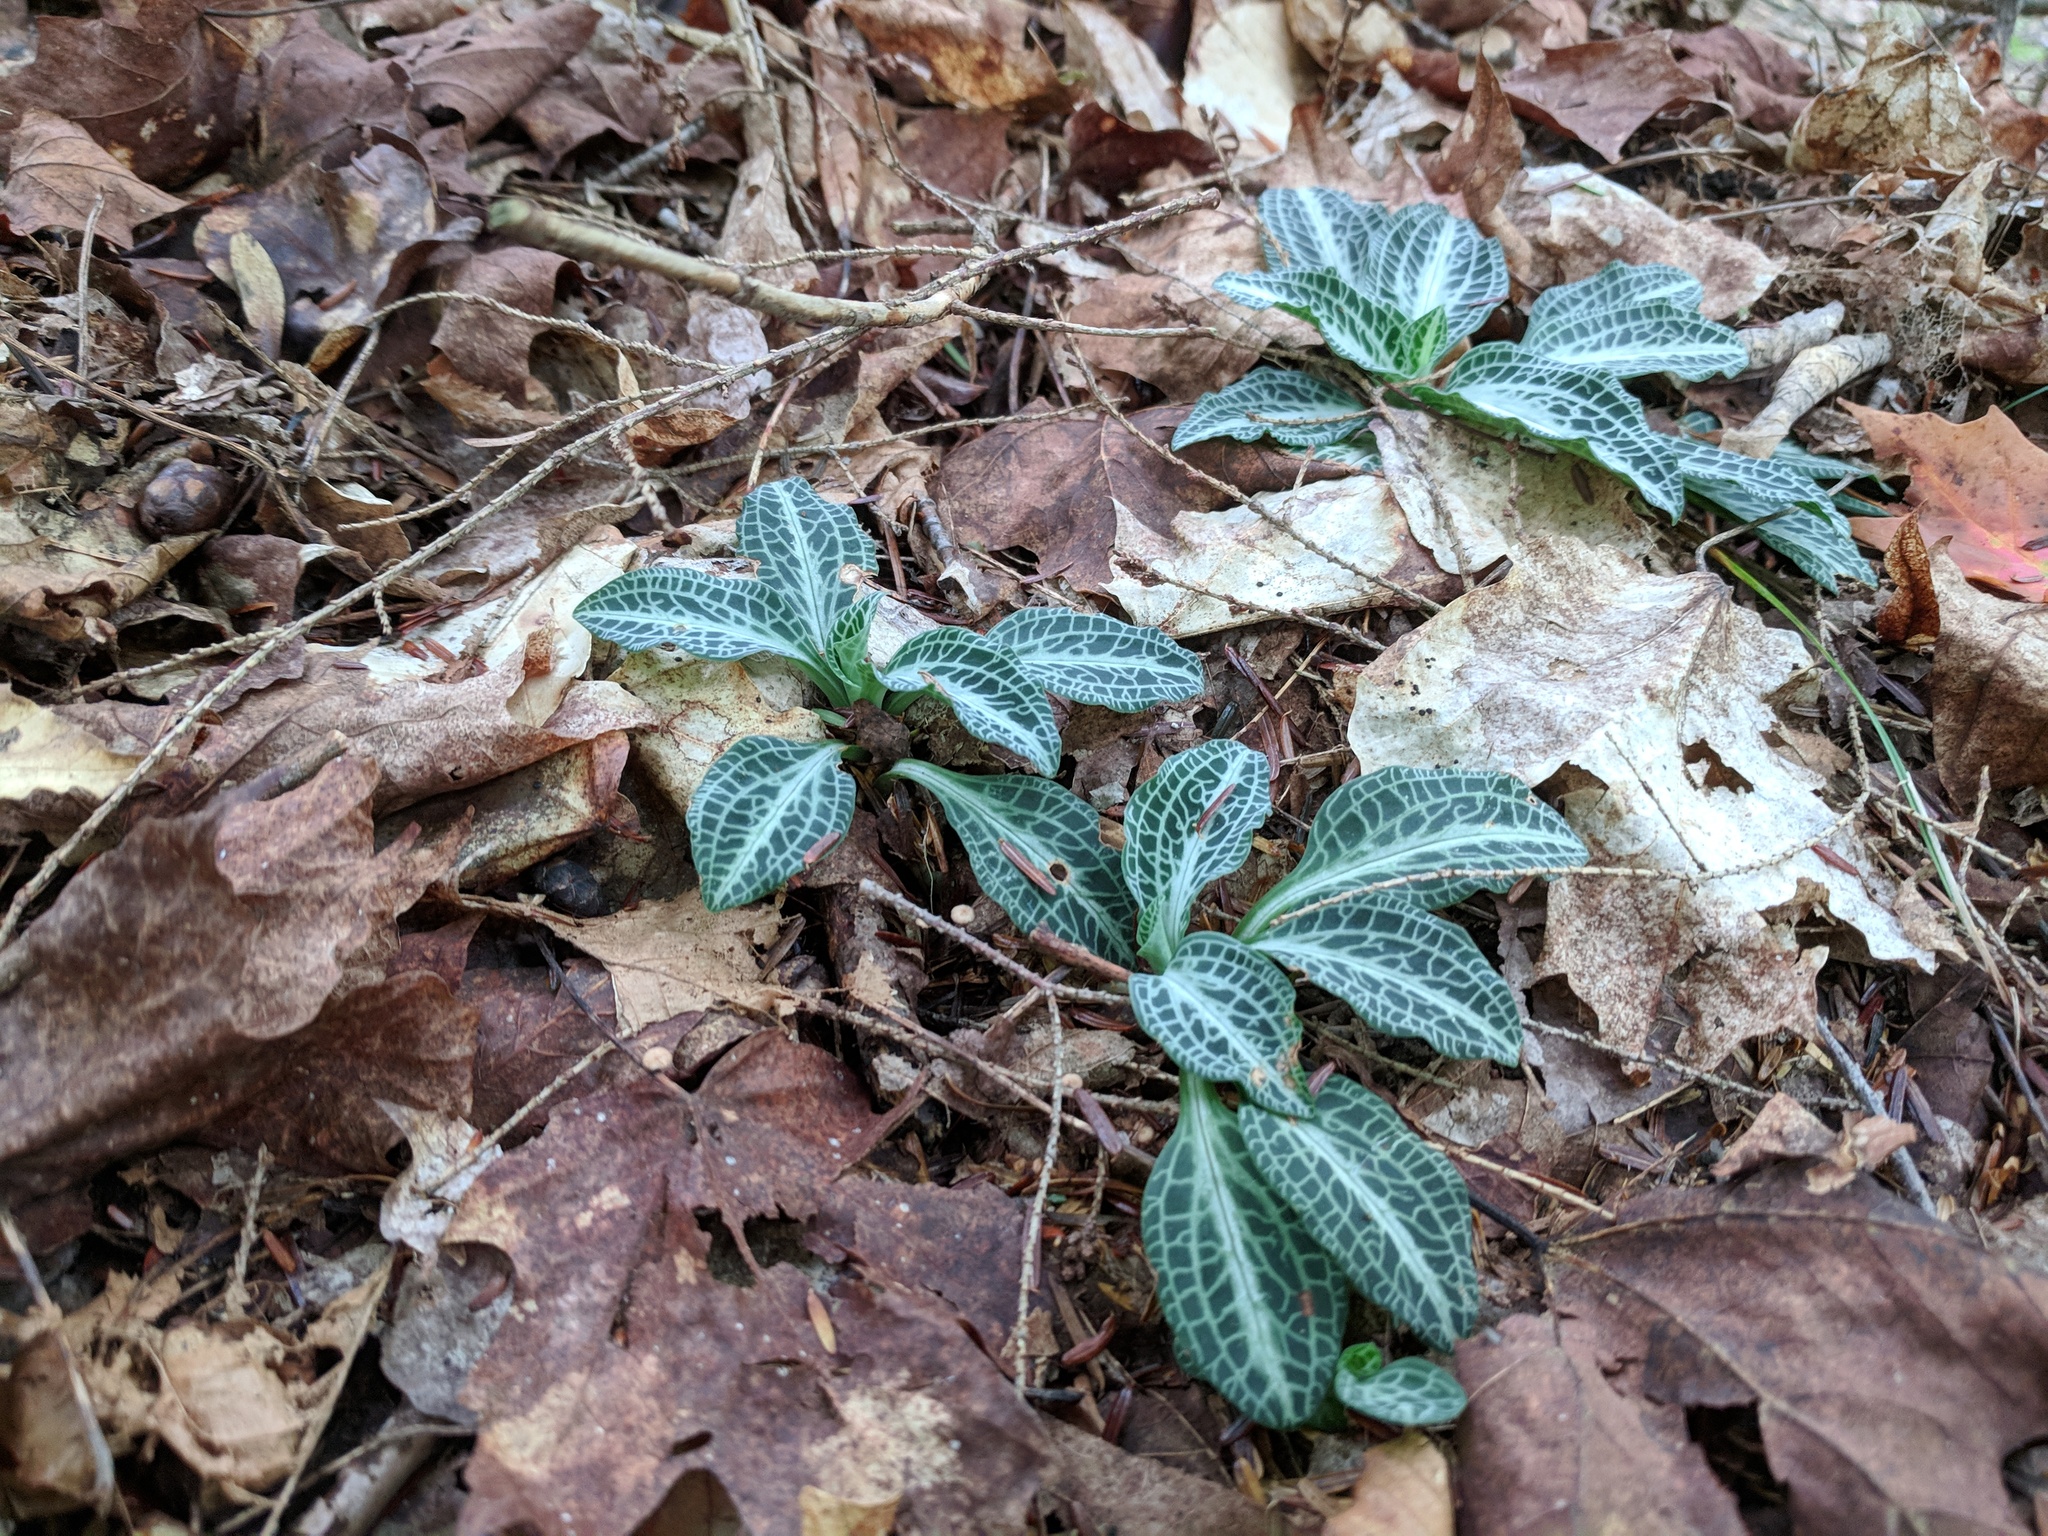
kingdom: Plantae
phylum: Tracheophyta
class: Liliopsida
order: Asparagales
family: Orchidaceae
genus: Goodyera
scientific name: Goodyera pubescens
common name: Downy rattlesnake-plantain
